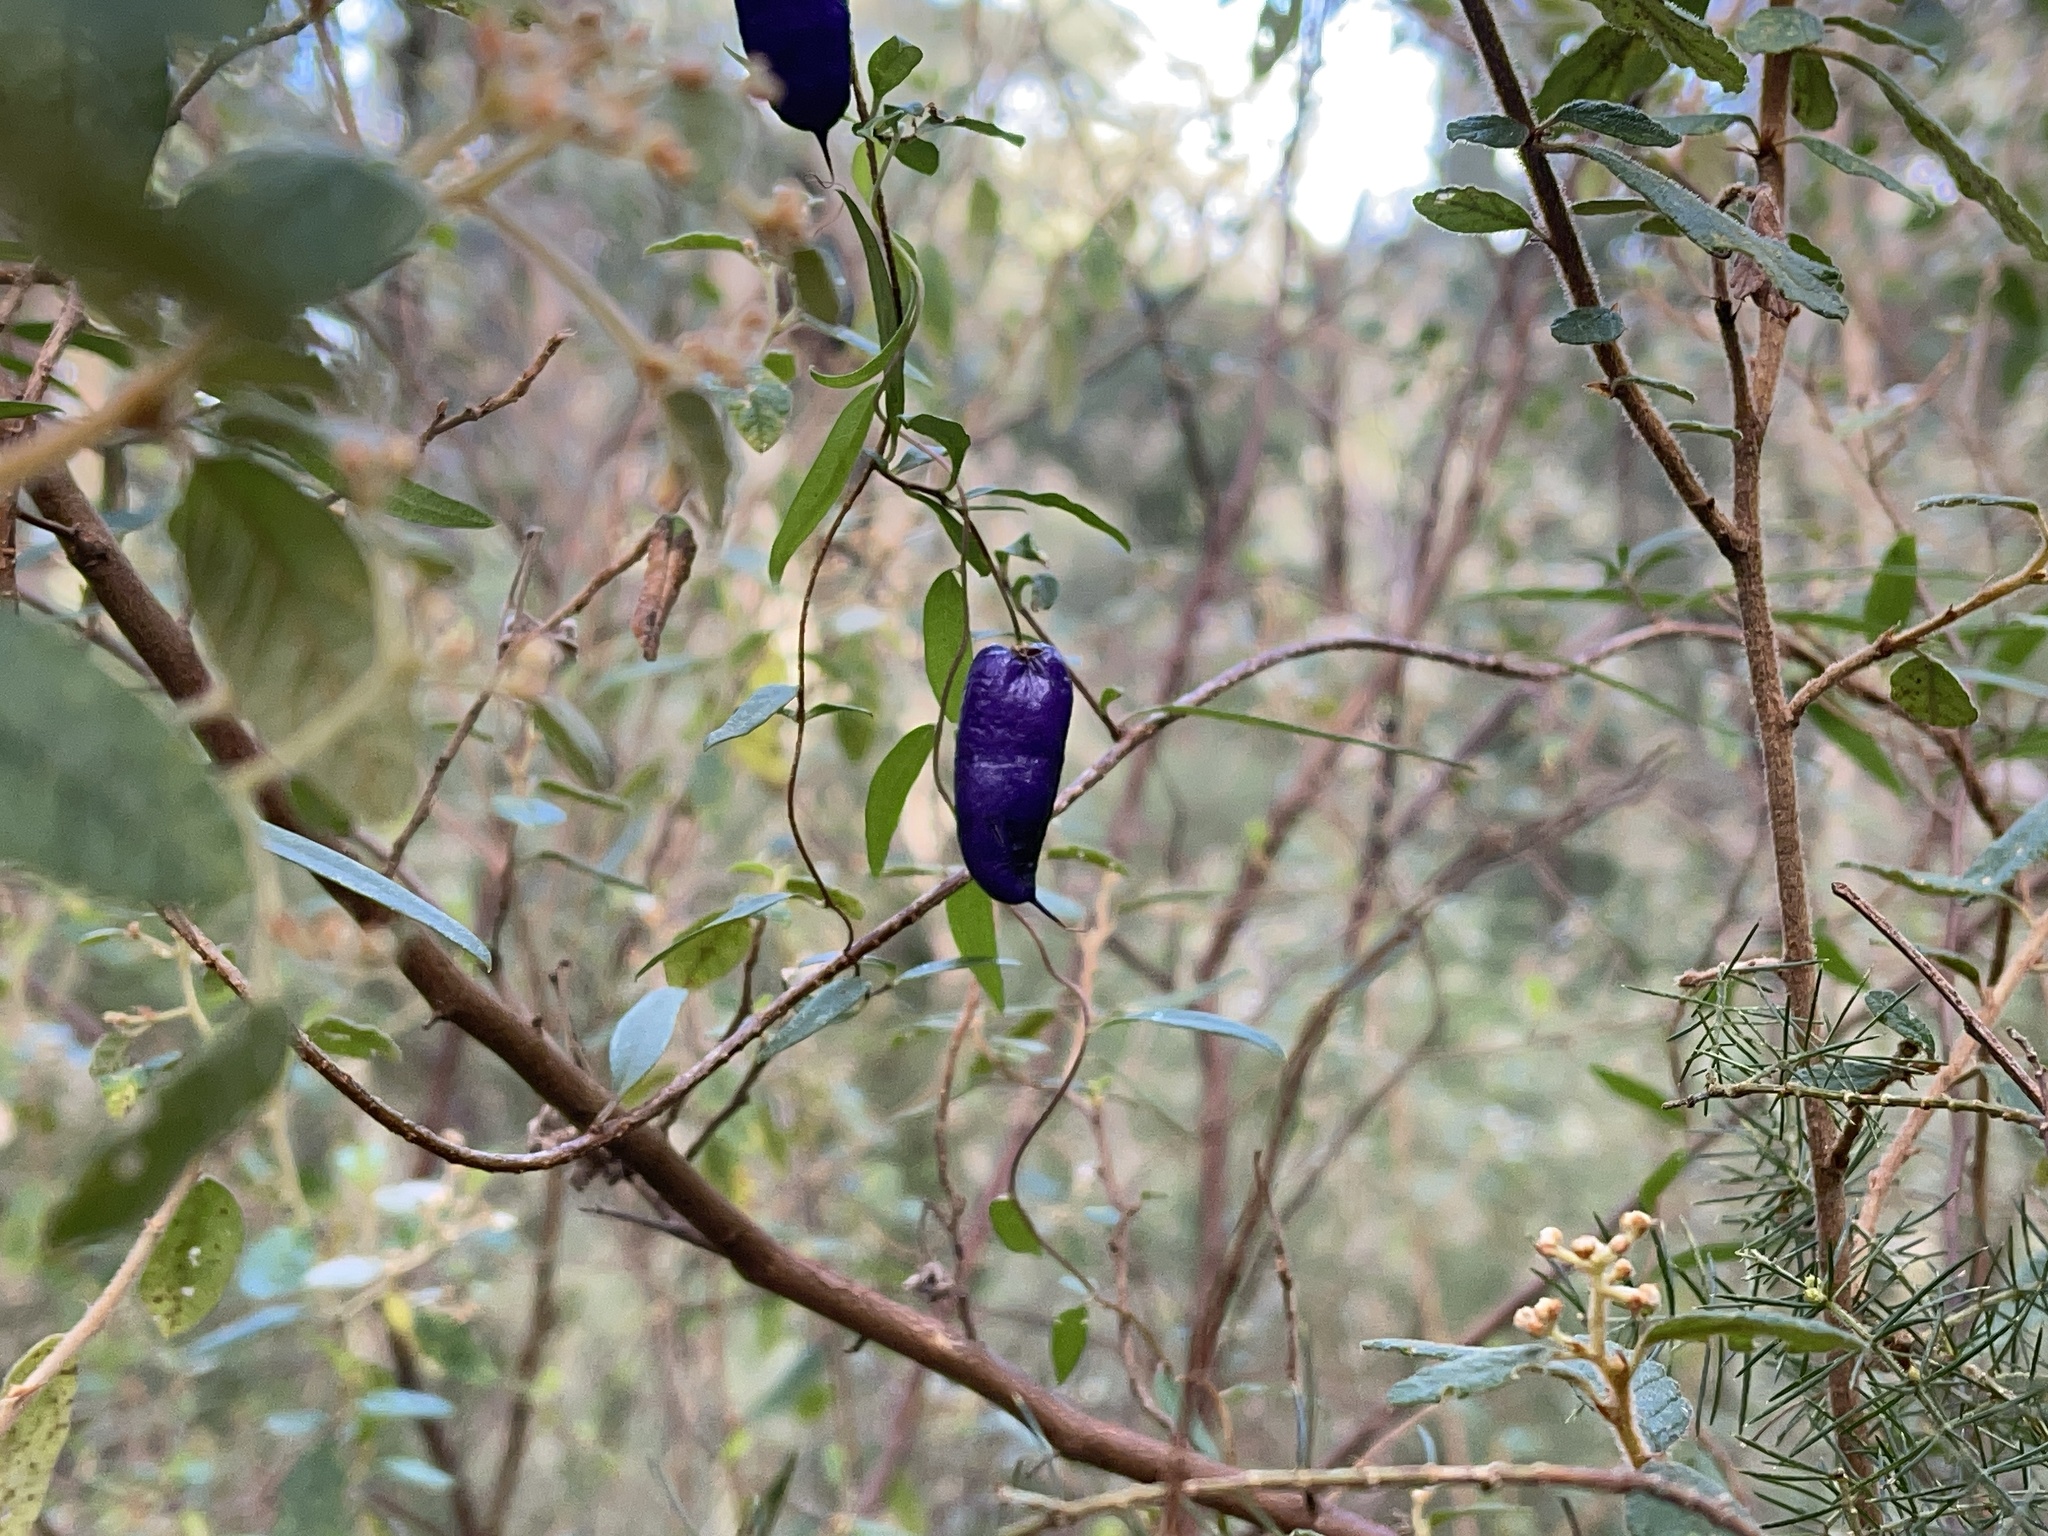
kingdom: Plantae
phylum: Tracheophyta
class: Magnoliopsida
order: Apiales
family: Pittosporaceae
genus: Billardiera
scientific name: Billardiera macrantha
